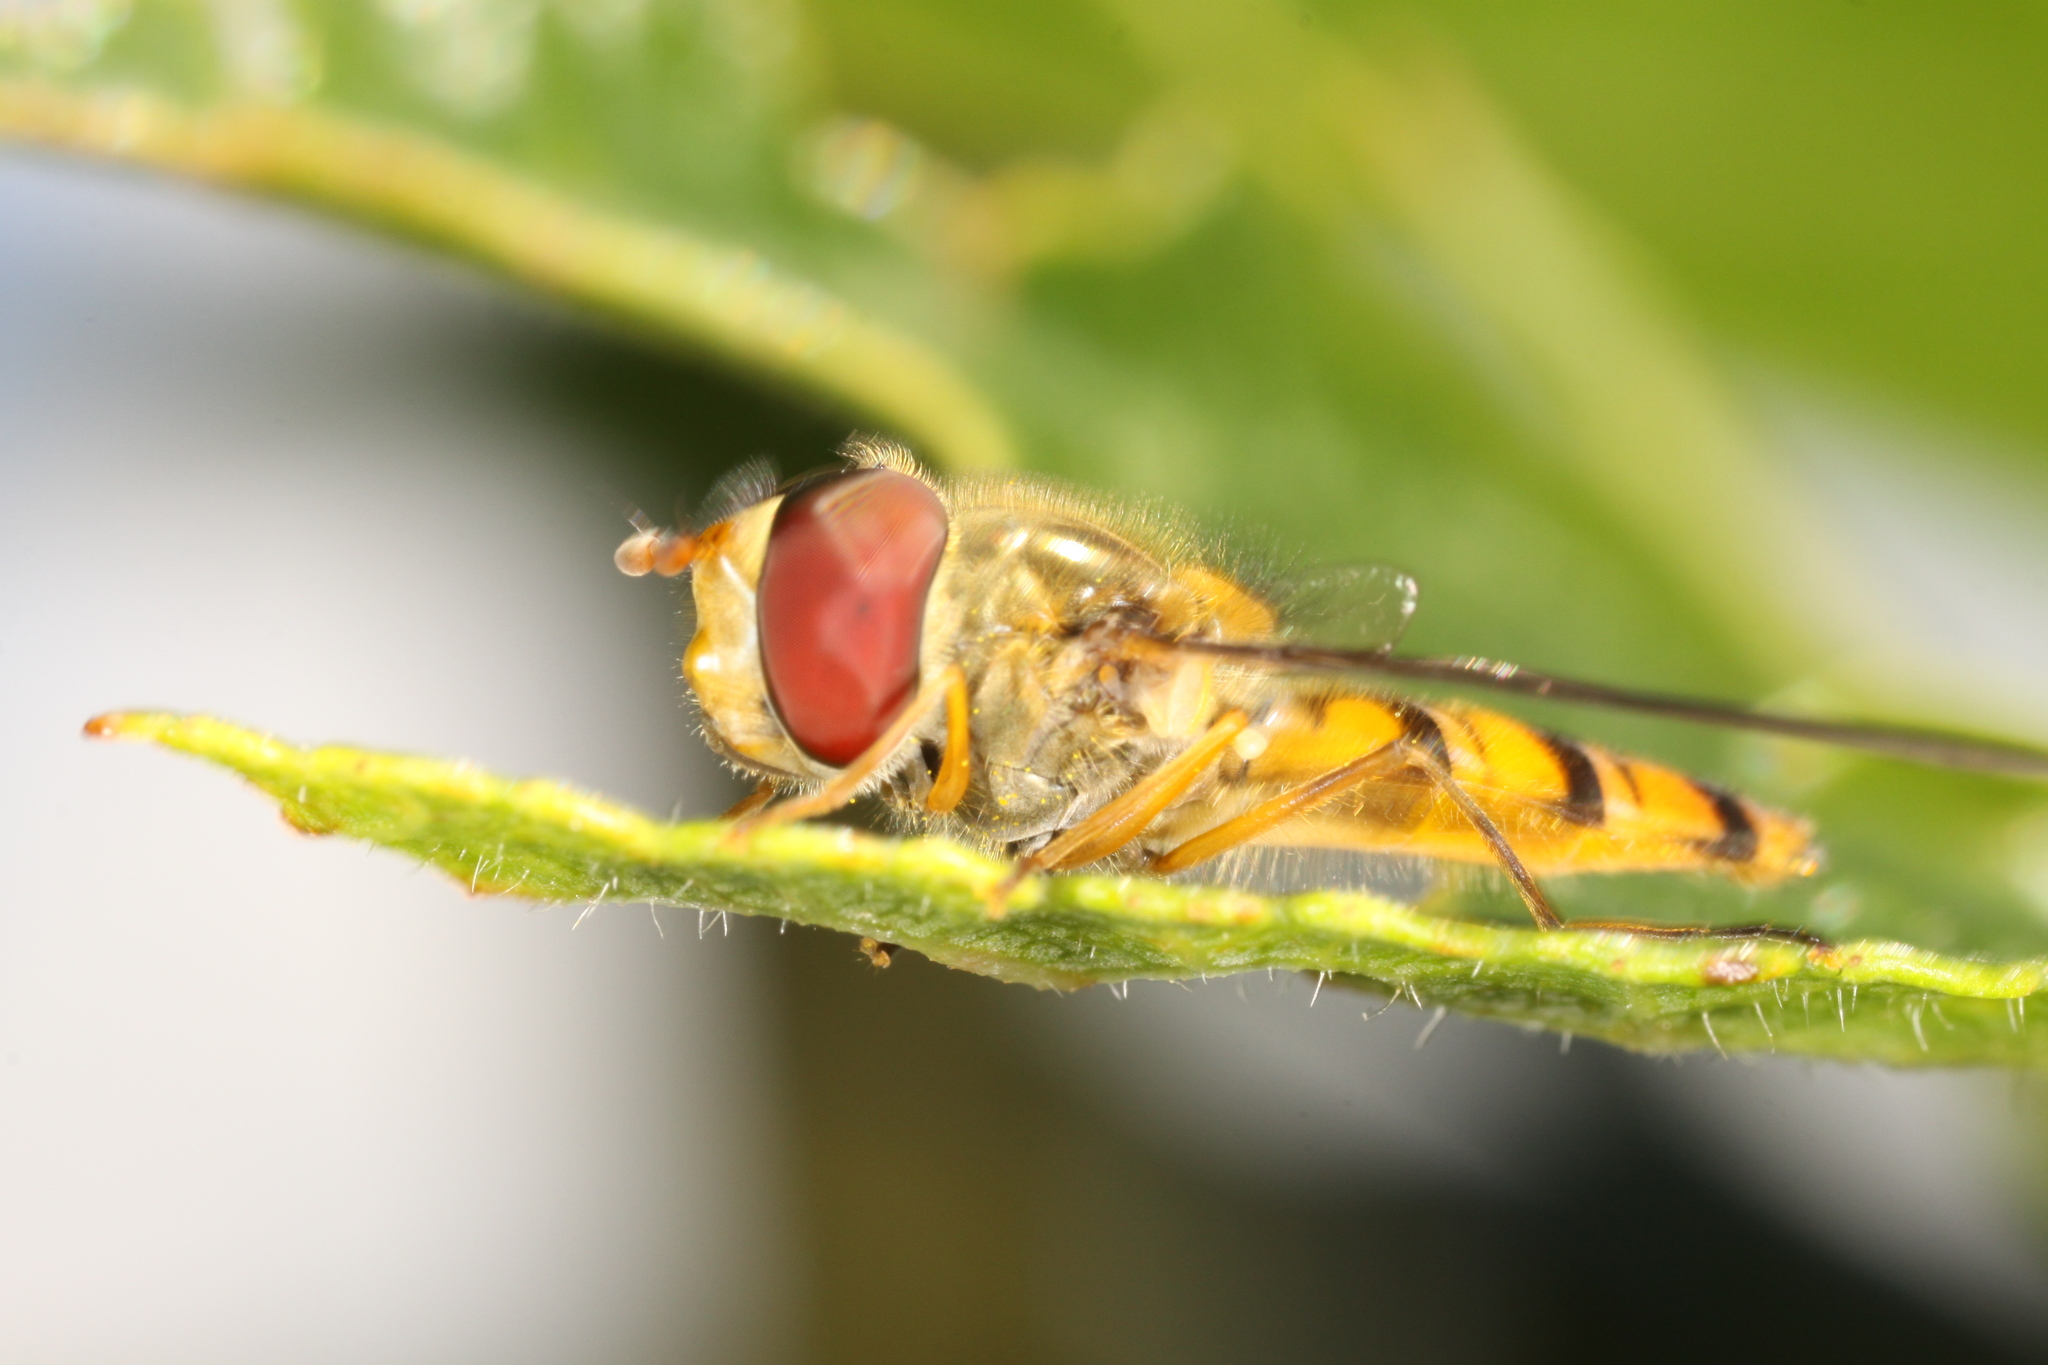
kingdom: Animalia
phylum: Arthropoda
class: Insecta
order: Diptera
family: Syrphidae
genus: Episyrphus
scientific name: Episyrphus balteatus
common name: Marmalade hoverfly
